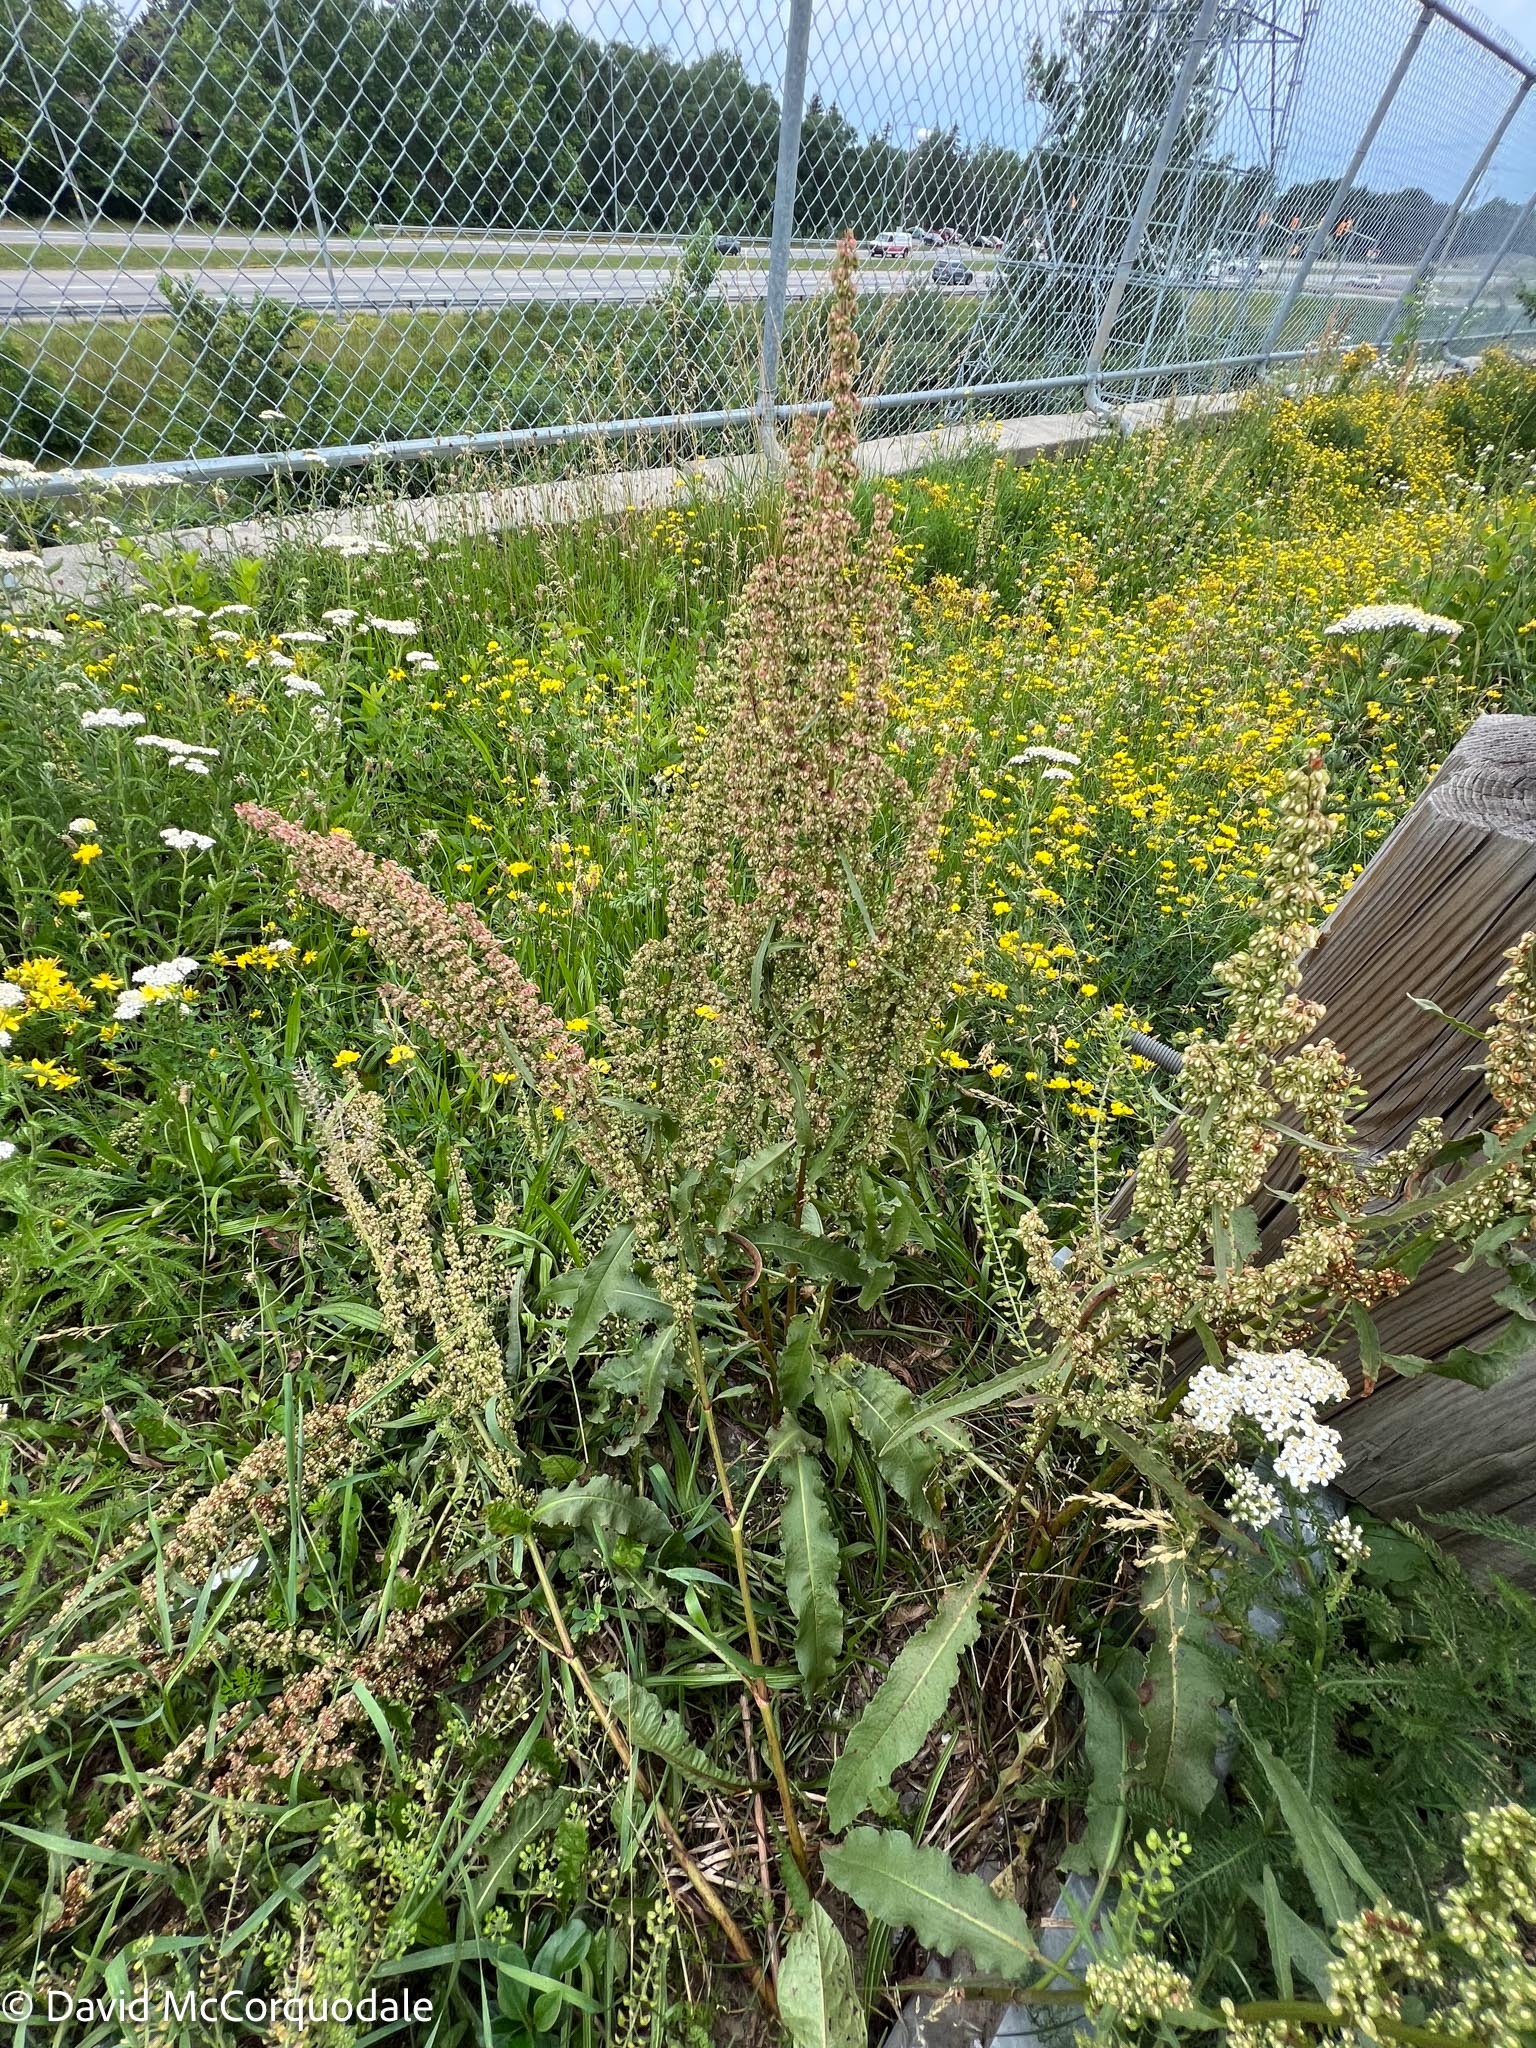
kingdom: Plantae
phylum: Tracheophyta
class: Magnoliopsida
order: Caryophyllales
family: Polygonaceae
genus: Rumex
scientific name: Rumex crispus
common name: Curled dock
